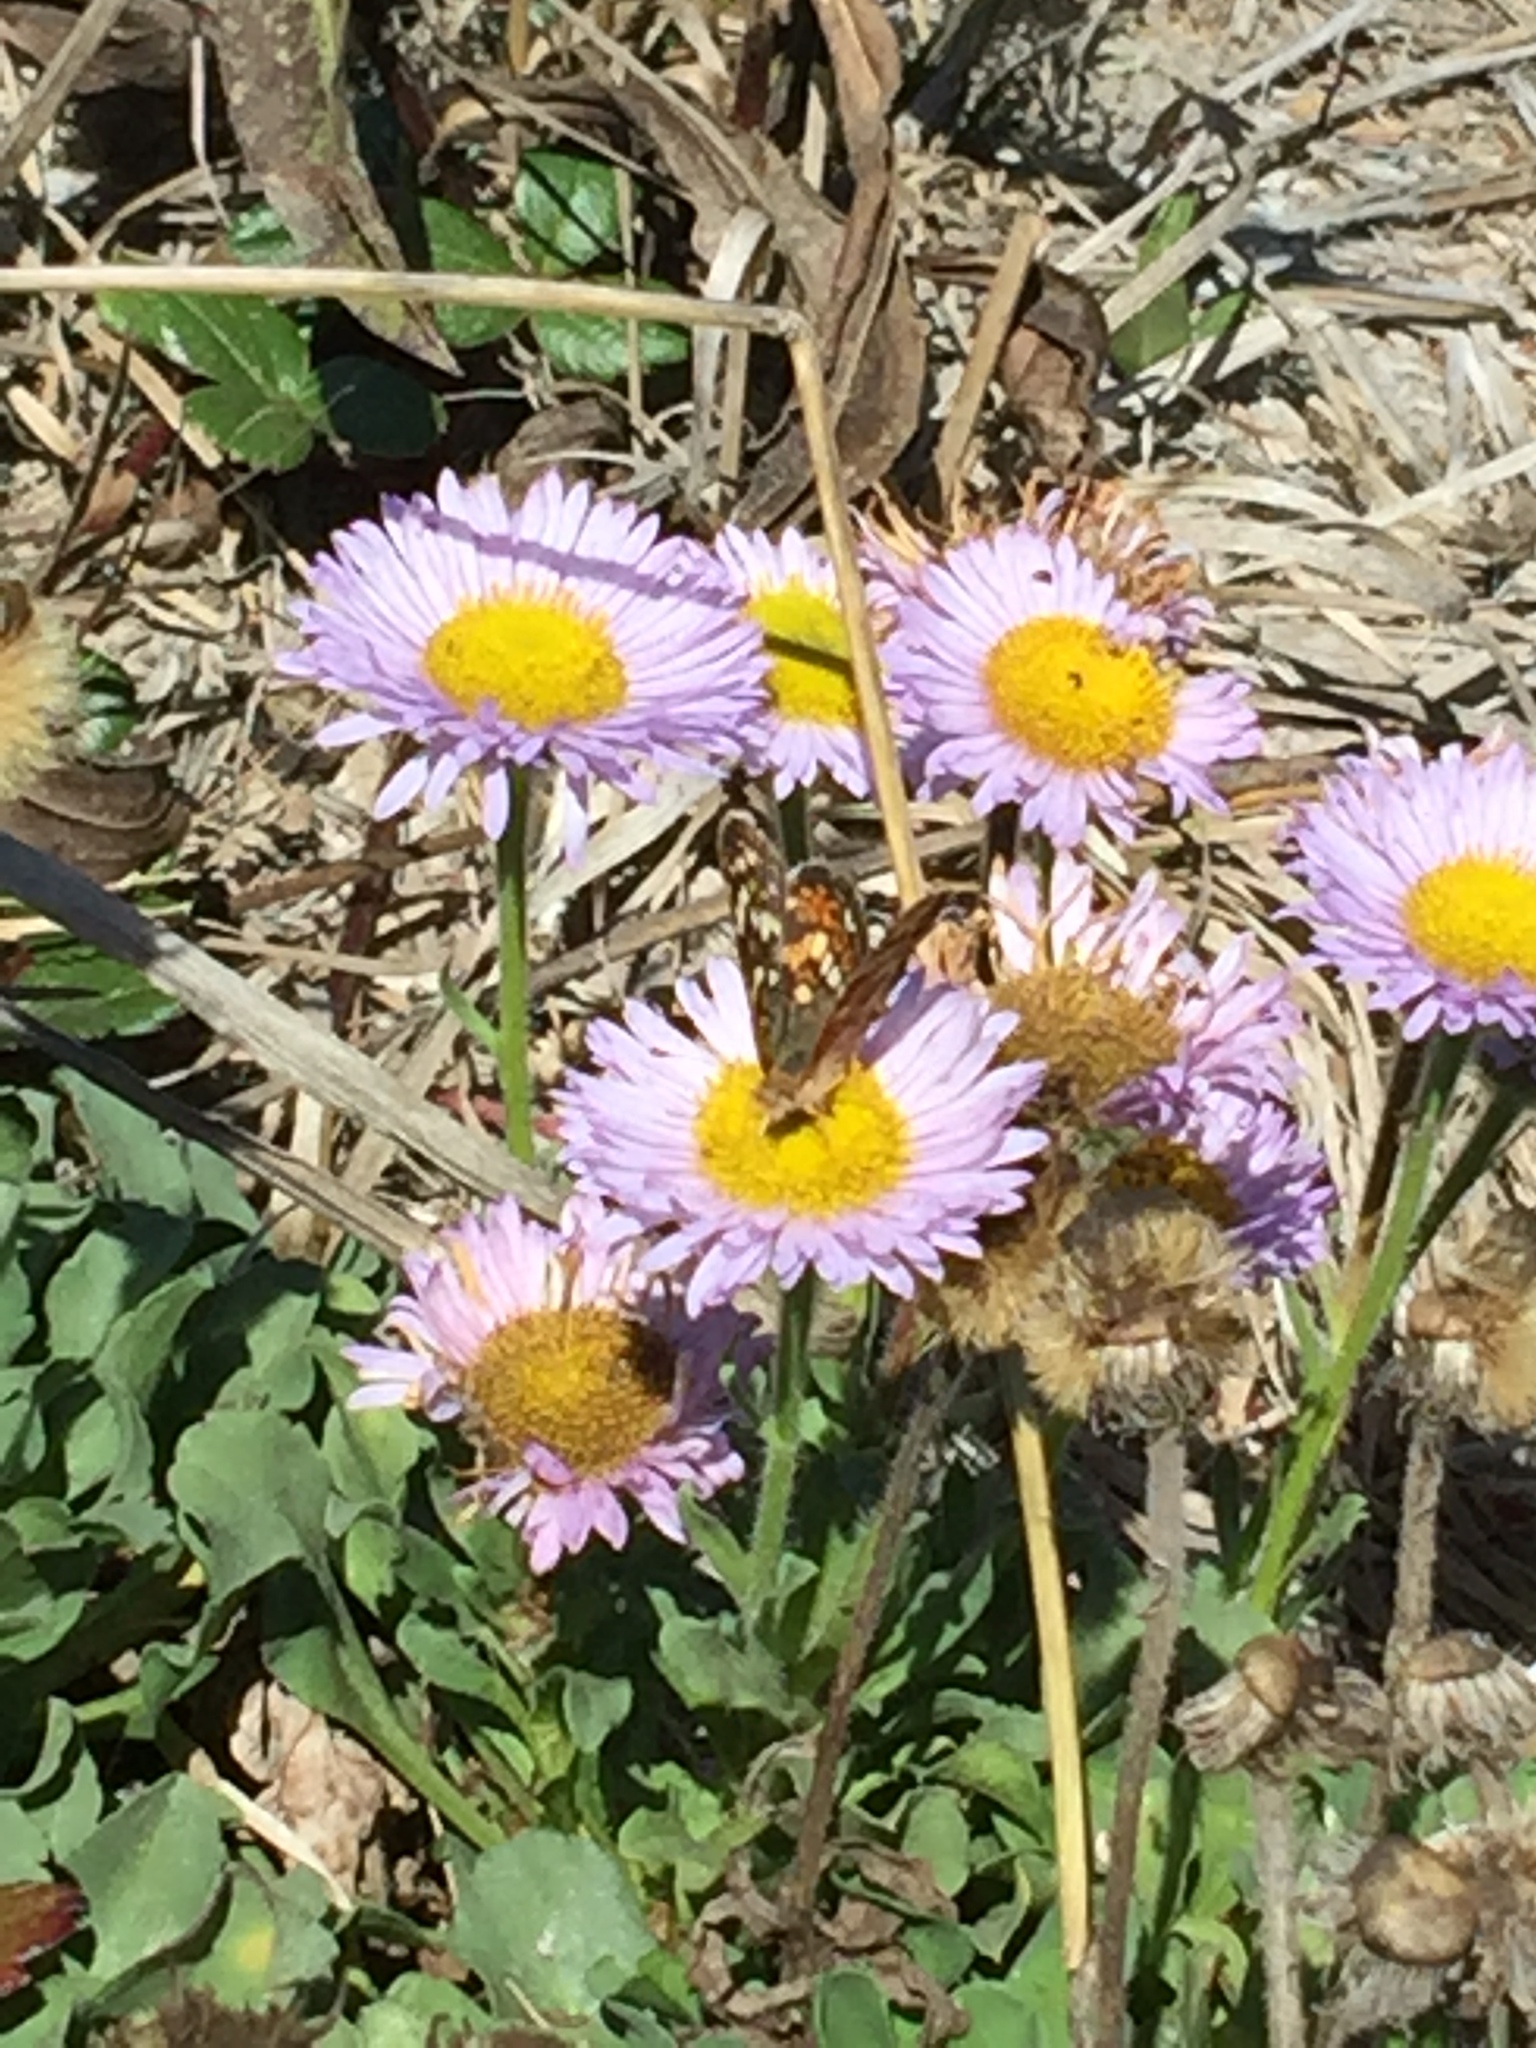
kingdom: Animalia
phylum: Arthropoda
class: Insecta
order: Lepidoptera
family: Nymphalidae
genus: Phyciodes
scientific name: Phyciodes tharos
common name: Pearl crescent
